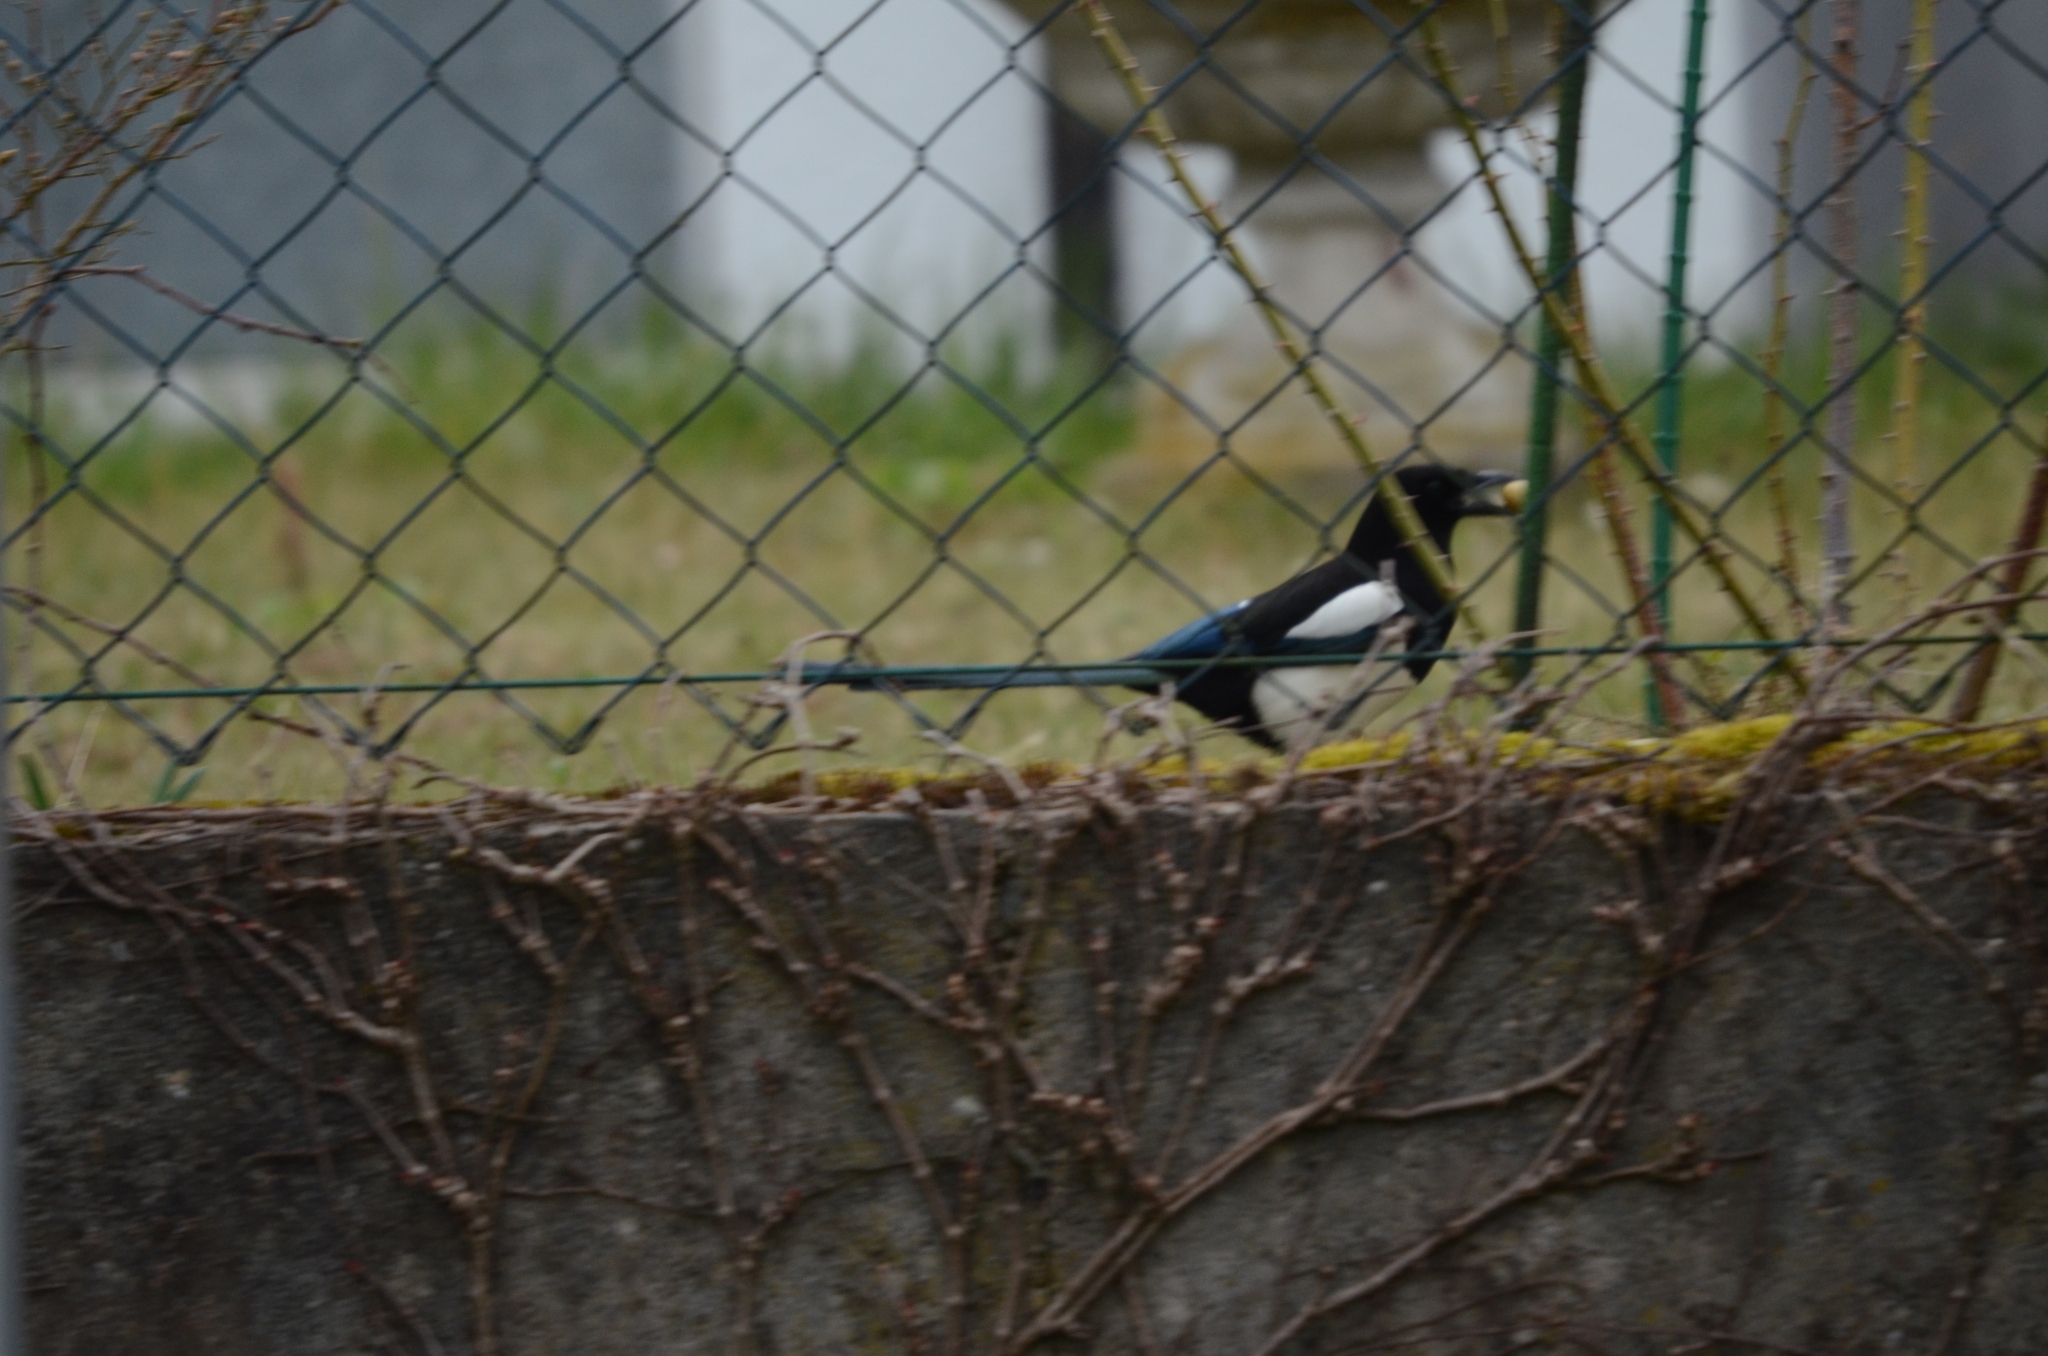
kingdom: Animalia
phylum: Chordata
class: Aves
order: Passeriformes
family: Corvidae
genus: Pica
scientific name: Pica pica
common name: Eurasian magpie
